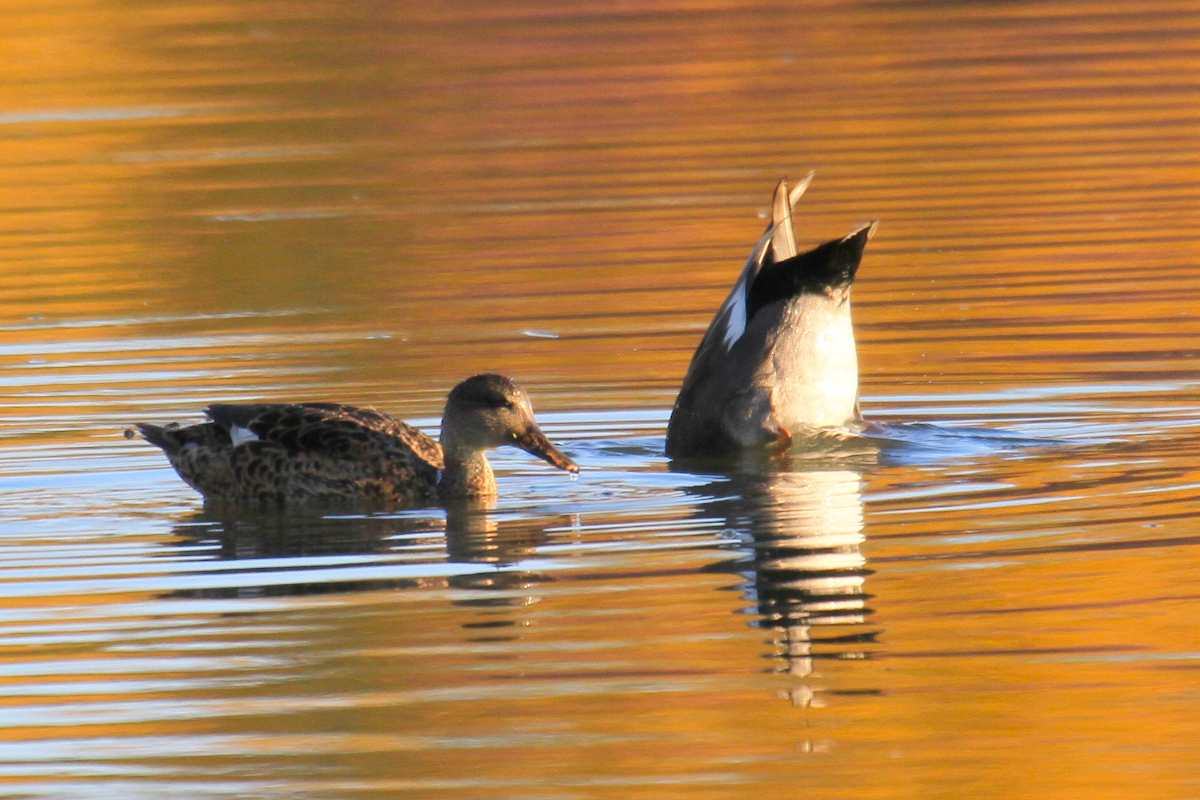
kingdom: Animalia
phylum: Chordata
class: Aves
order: Anseriformes
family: Anatidae
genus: Mareca
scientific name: Mareca strepera
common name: Gadwall
